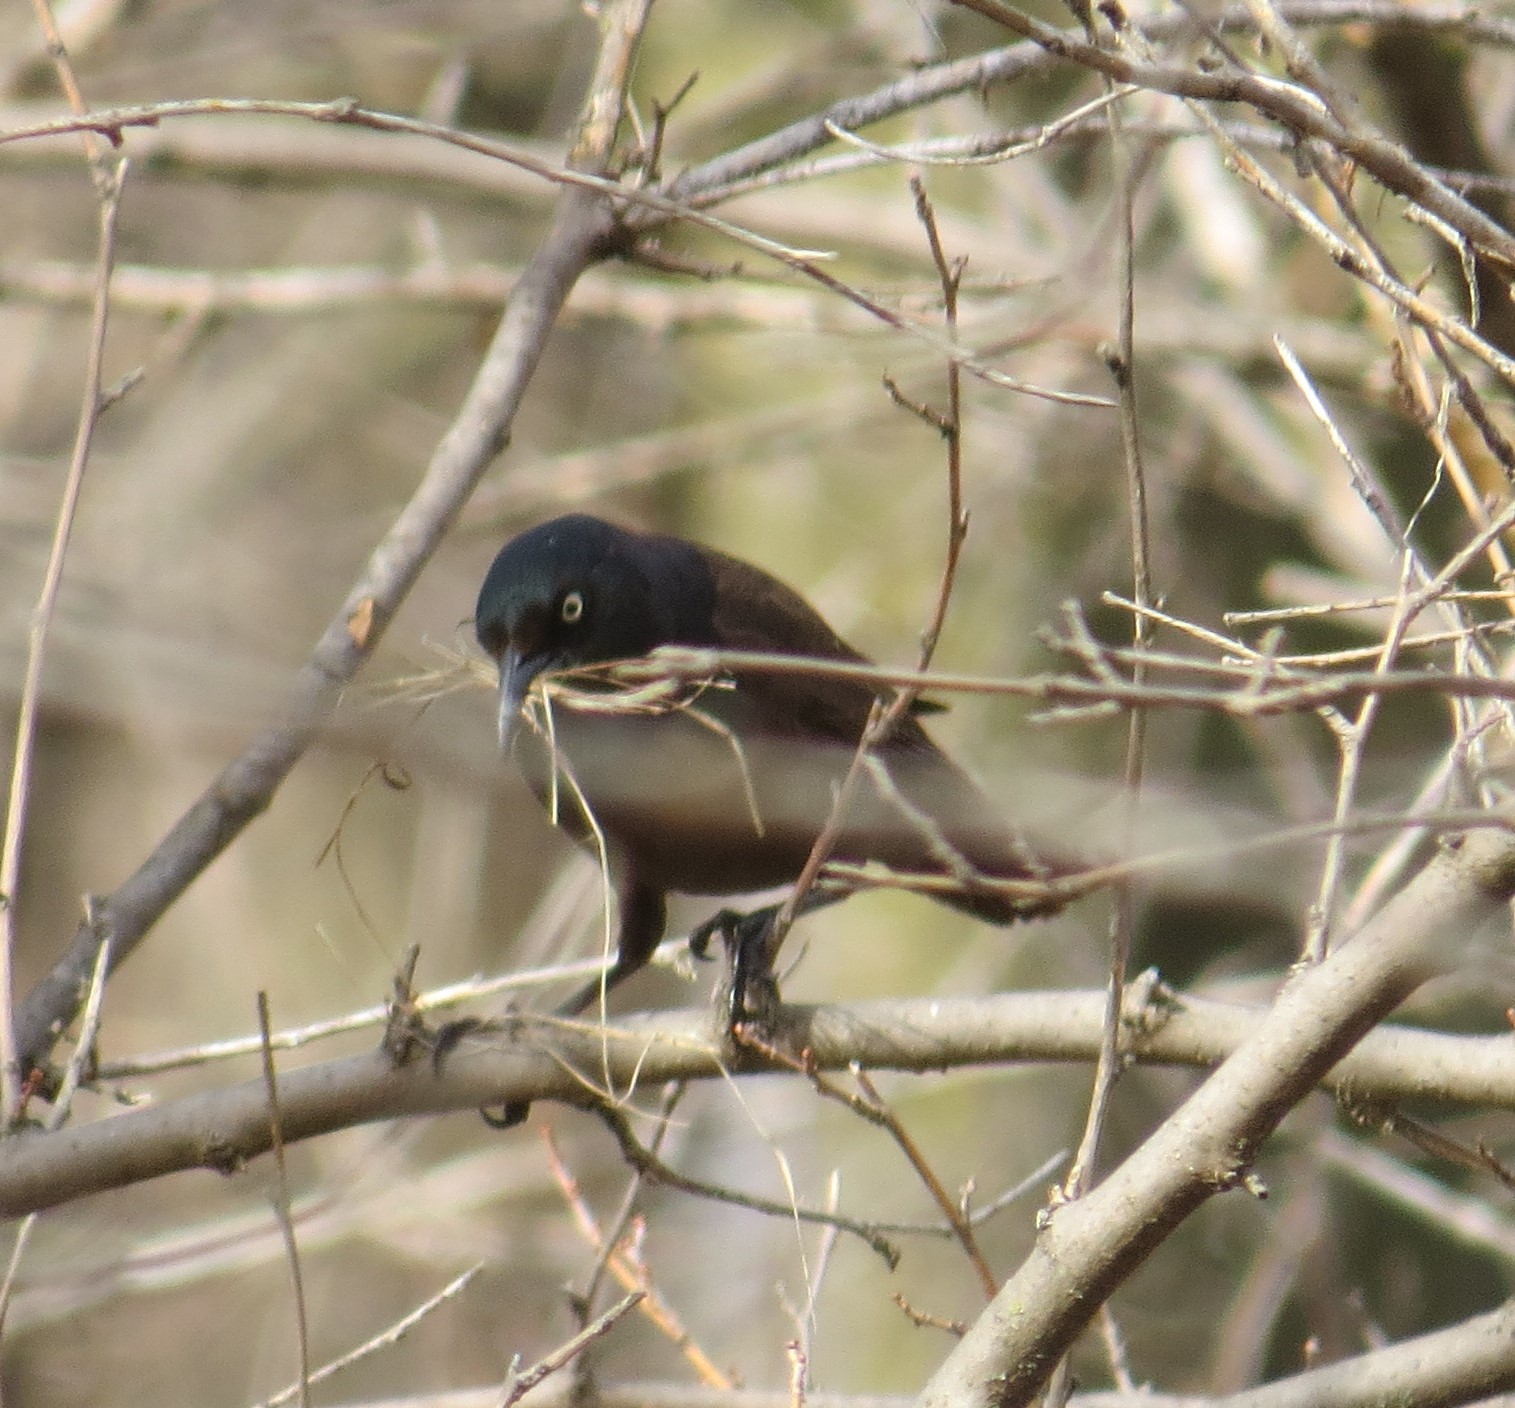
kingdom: Animalia
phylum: Chordata
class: Aves
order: Passeriformes
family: Icteridae
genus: Quiscalus
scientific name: Quiscalus quiscula
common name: Common grackle
